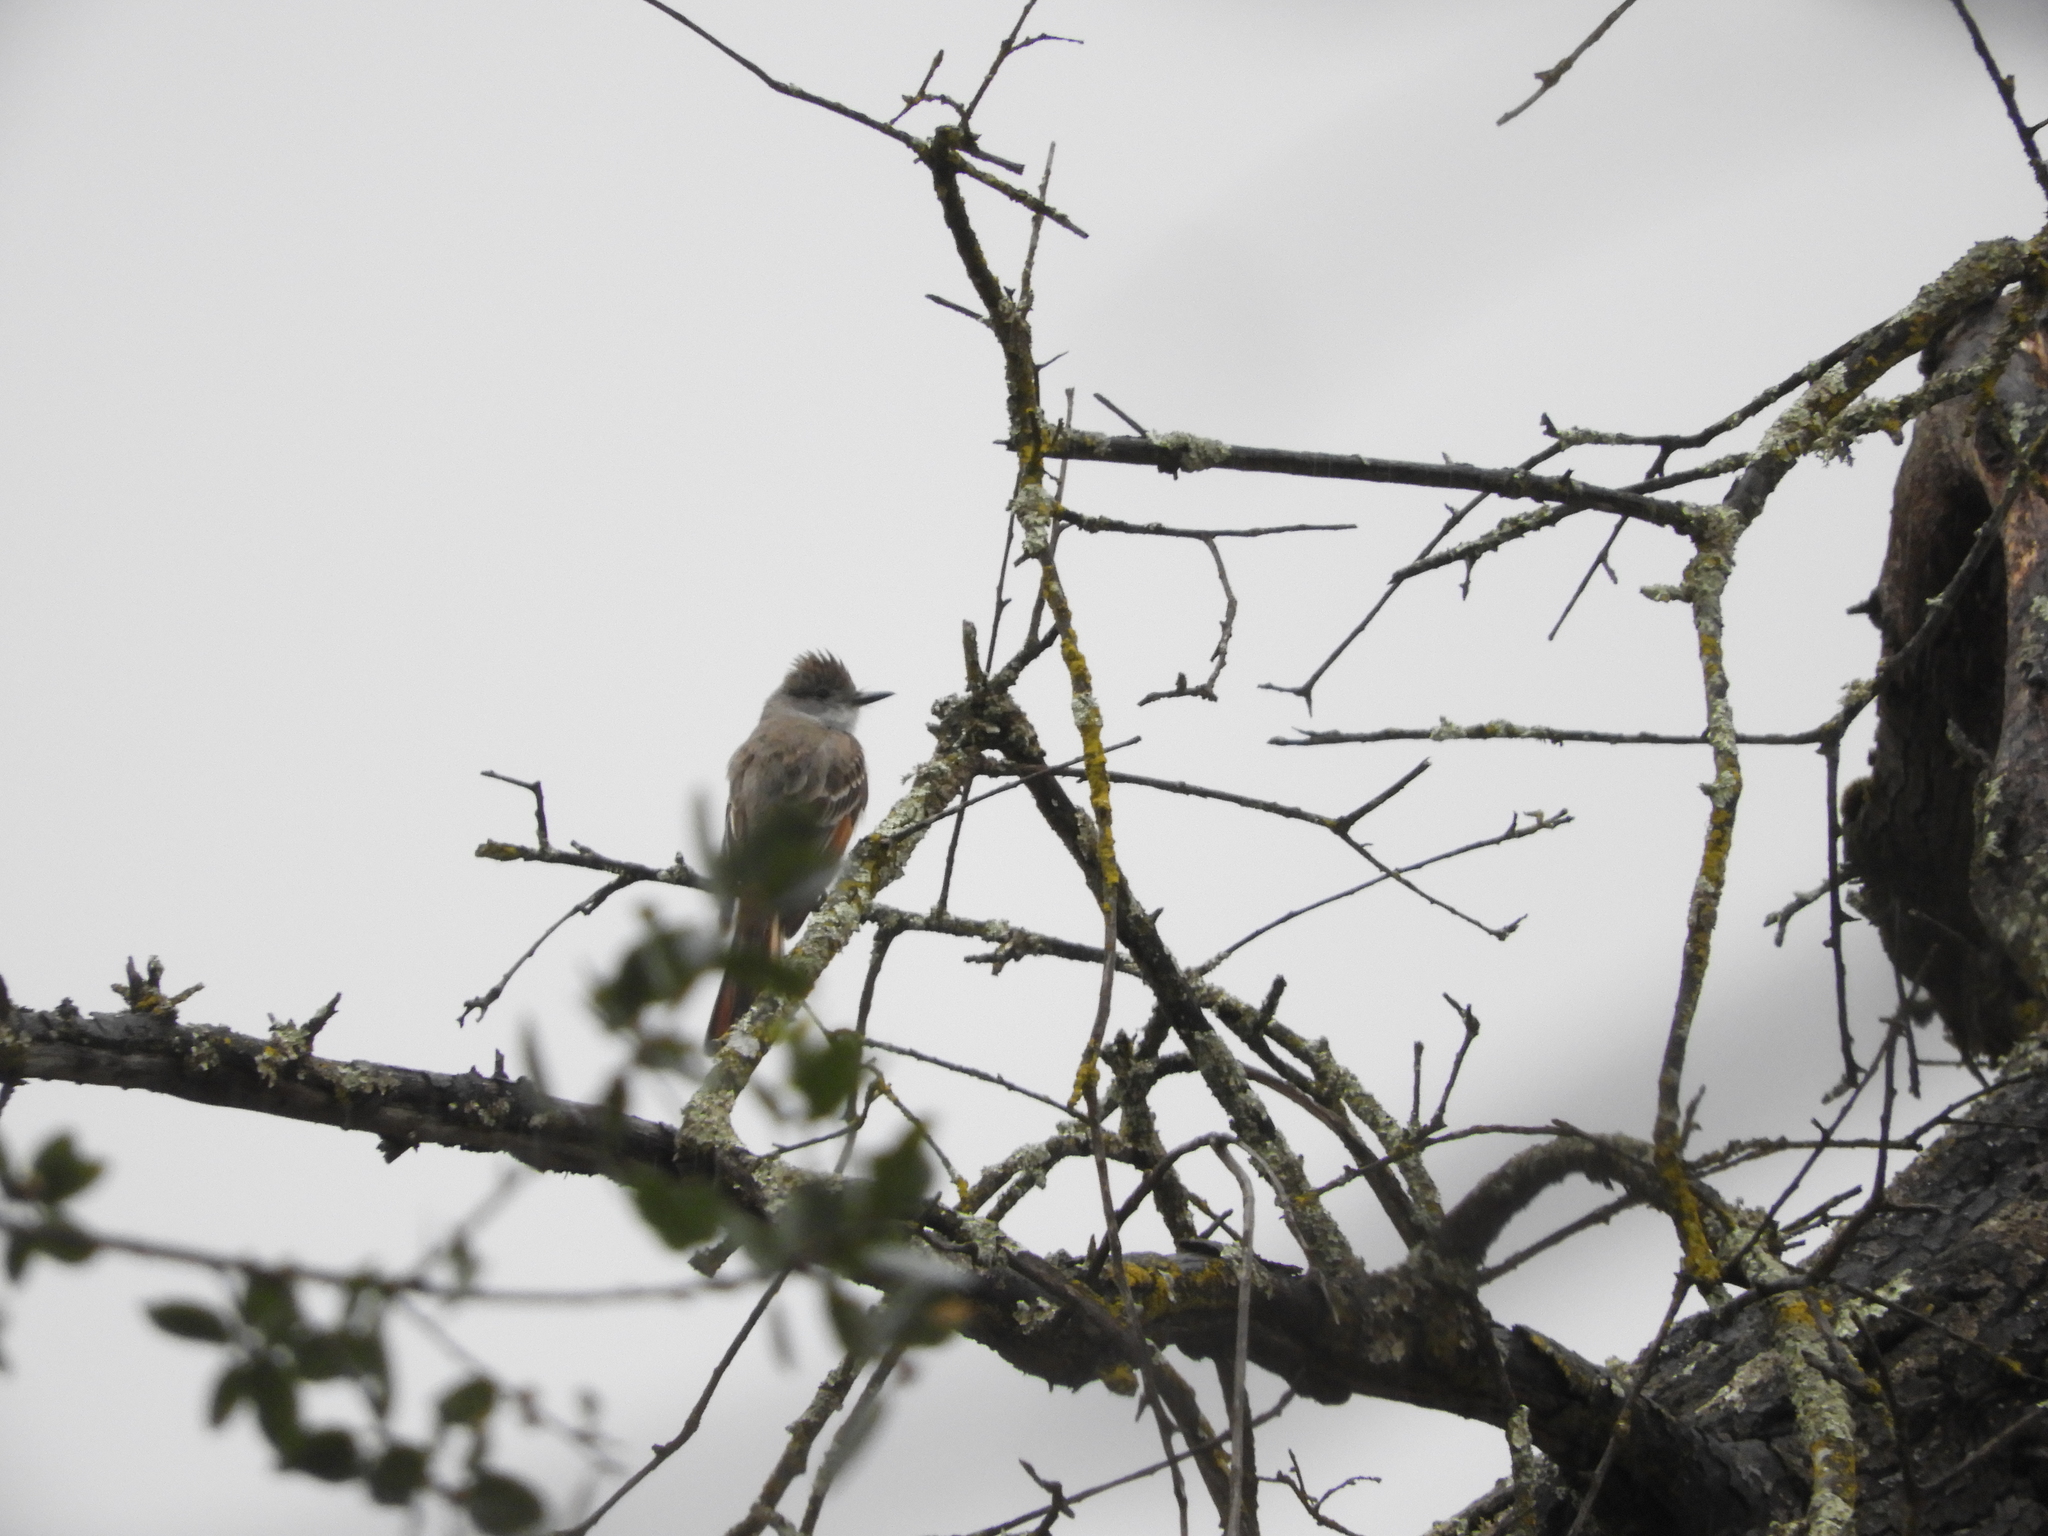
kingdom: Animalia
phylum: Chordata
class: Aves
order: Passeriformes
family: Tyrannidae
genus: Myiarchus
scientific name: Myiarchus cinerascens
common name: Ash-throated flycatcher
